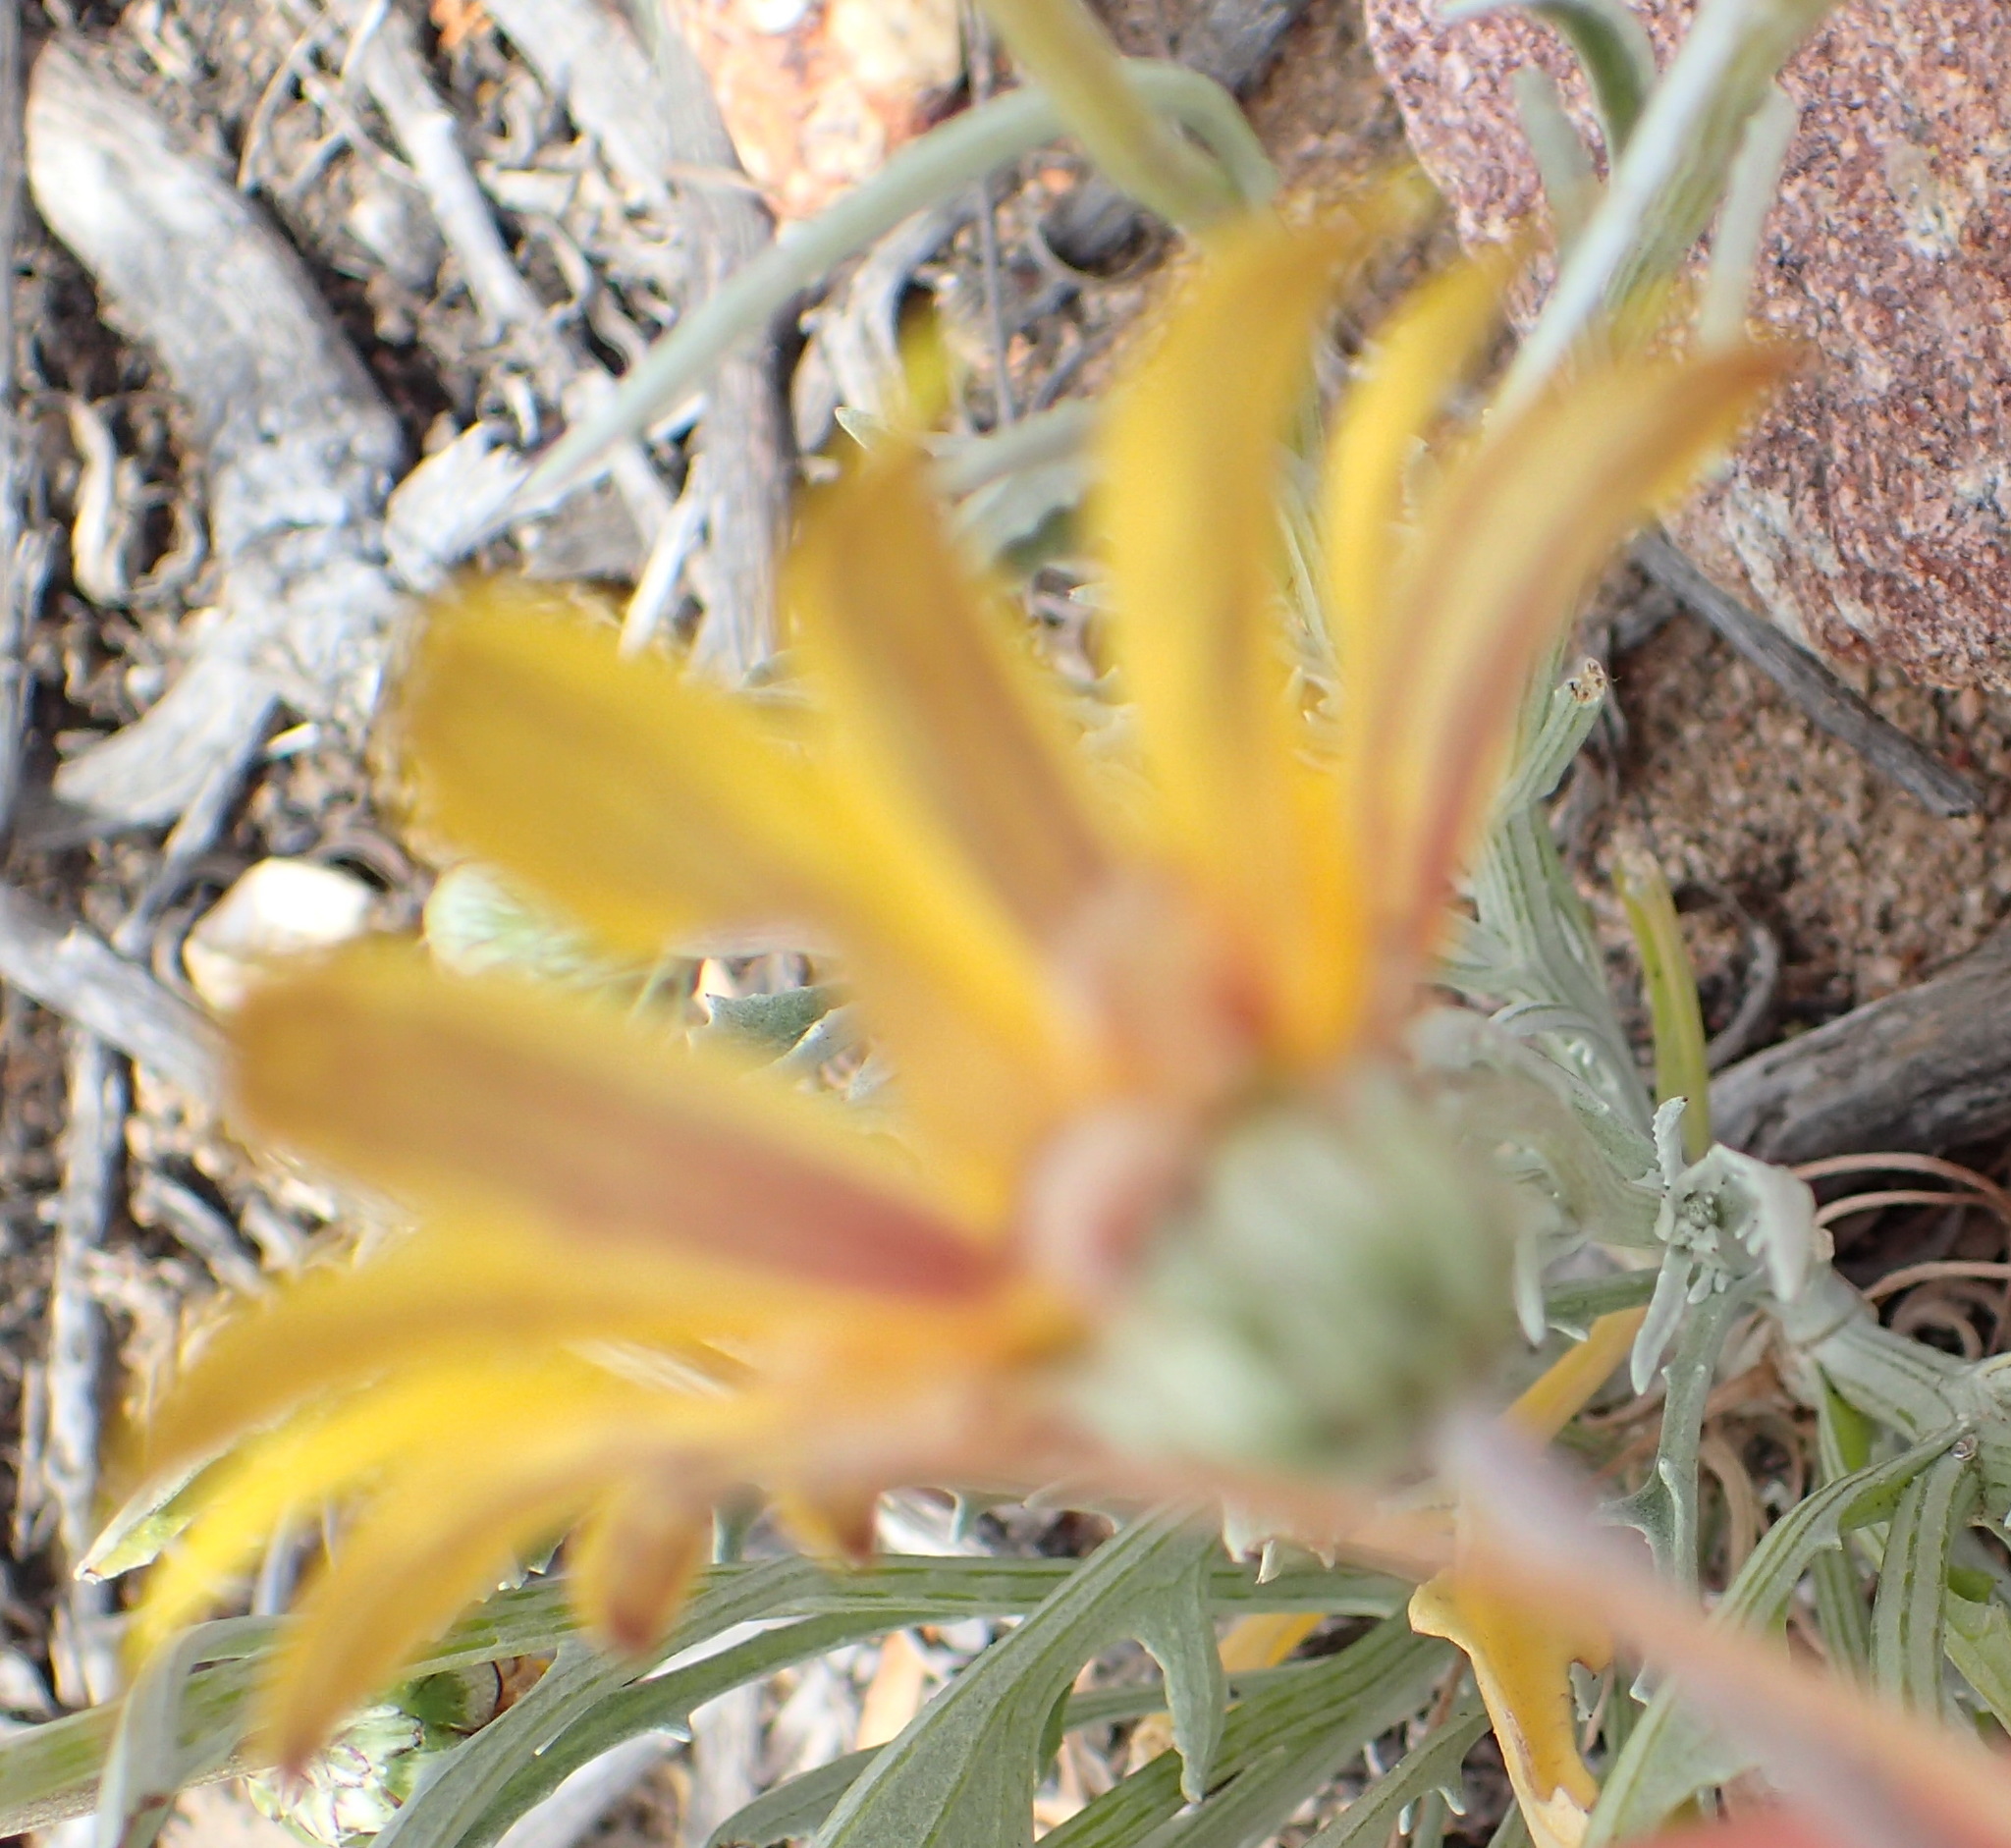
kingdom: Plantae
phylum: Tracheophyta
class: Magnoliopsida
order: Asterales
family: Asteraceae
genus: Arctotis
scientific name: Arctotis lanceolata
